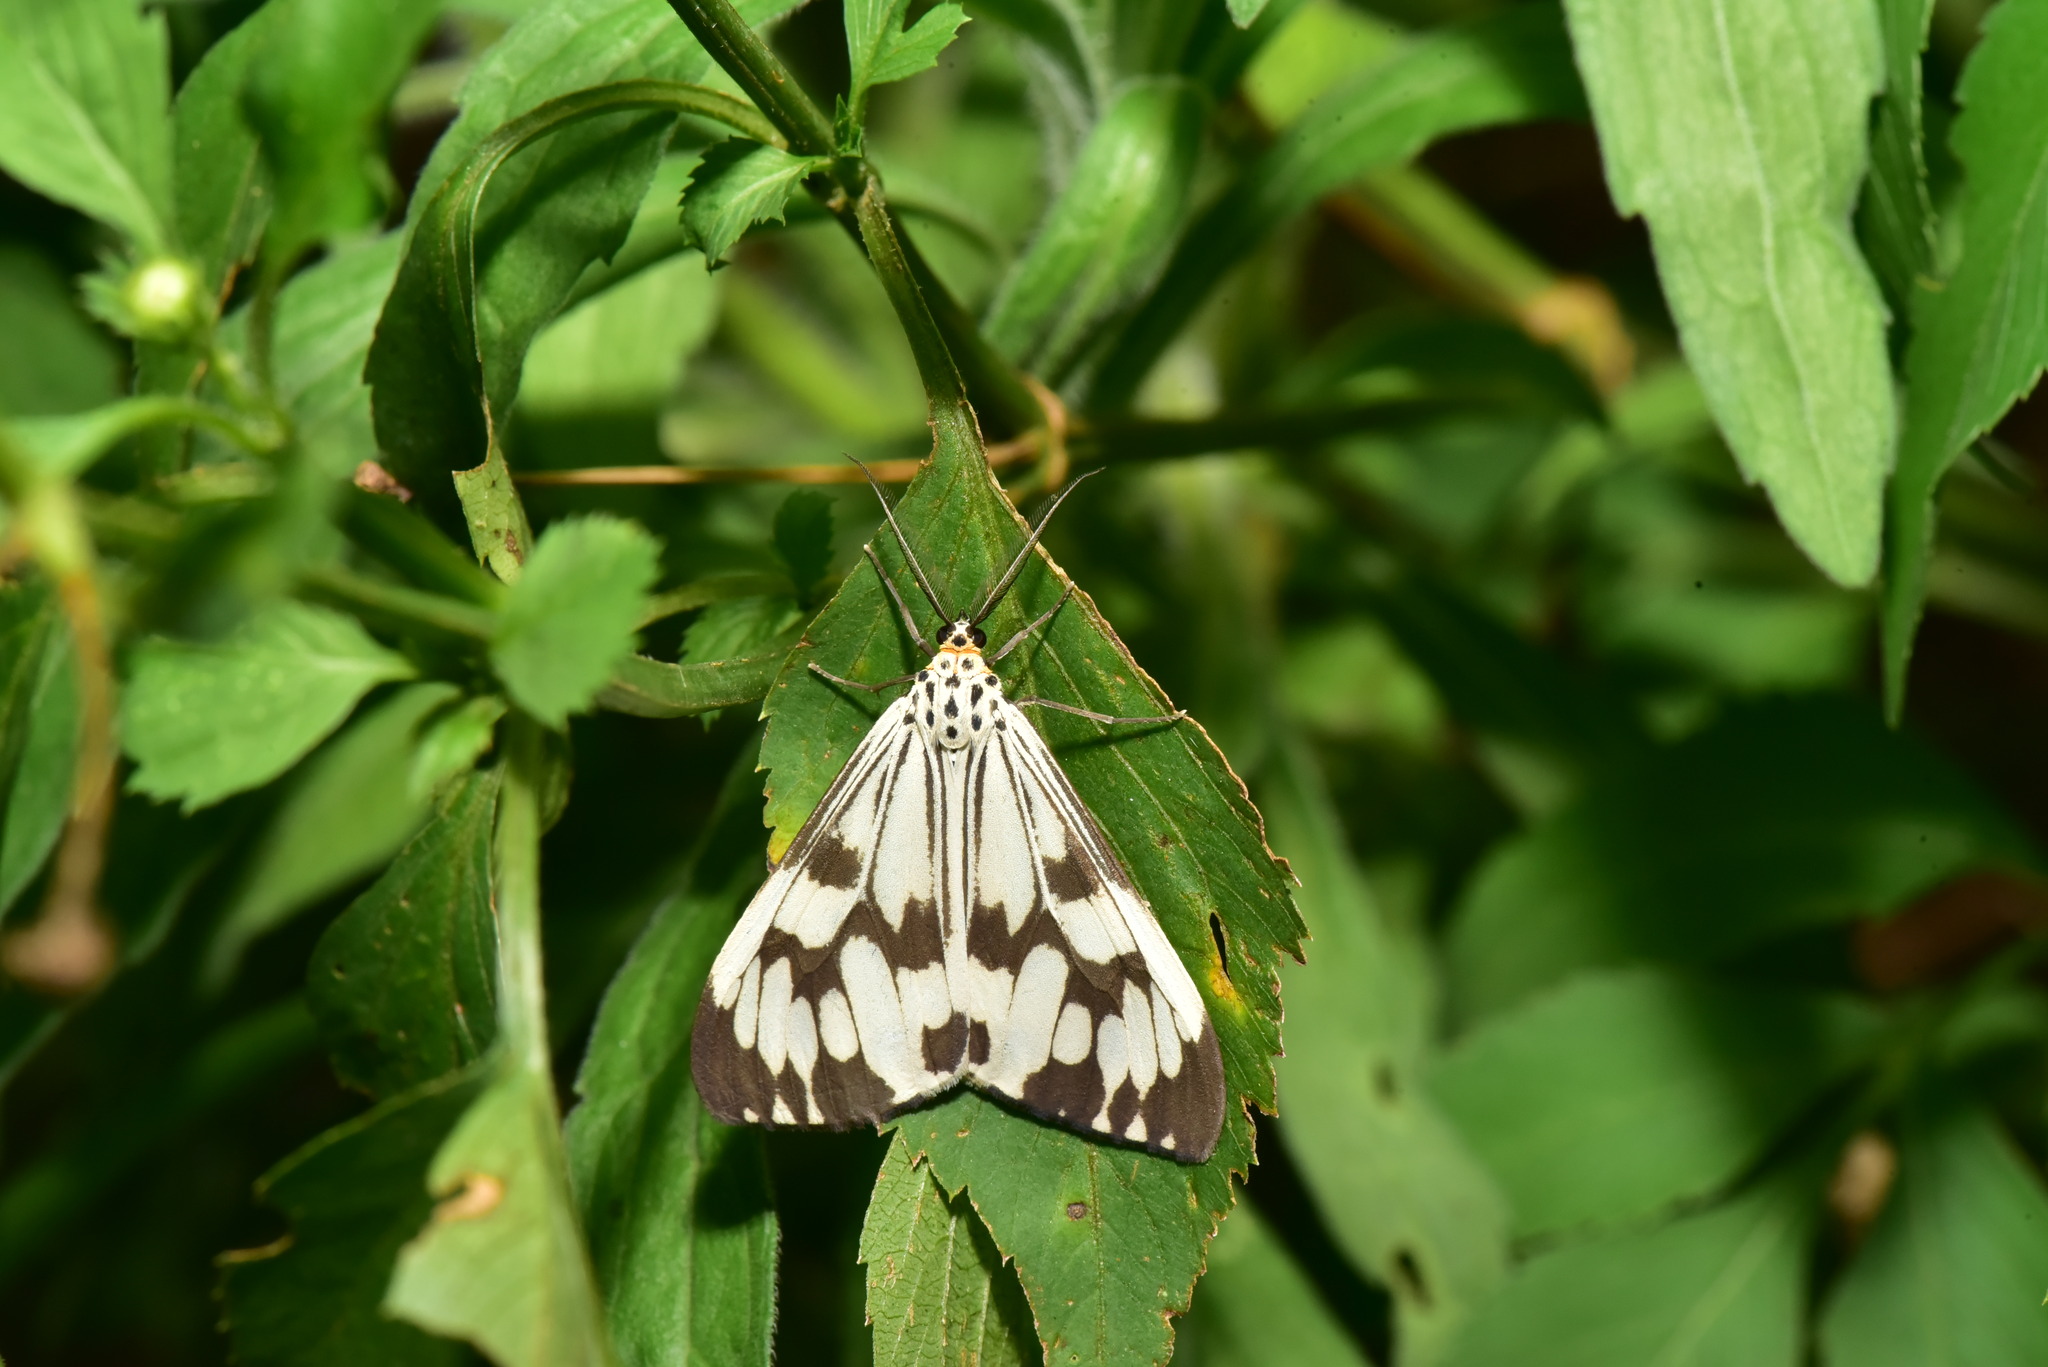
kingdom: Animalia
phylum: Arthropoda
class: Insecta
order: Lepidoptera
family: Erebidae
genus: Nyctemera
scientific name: Nyctemera adversata
